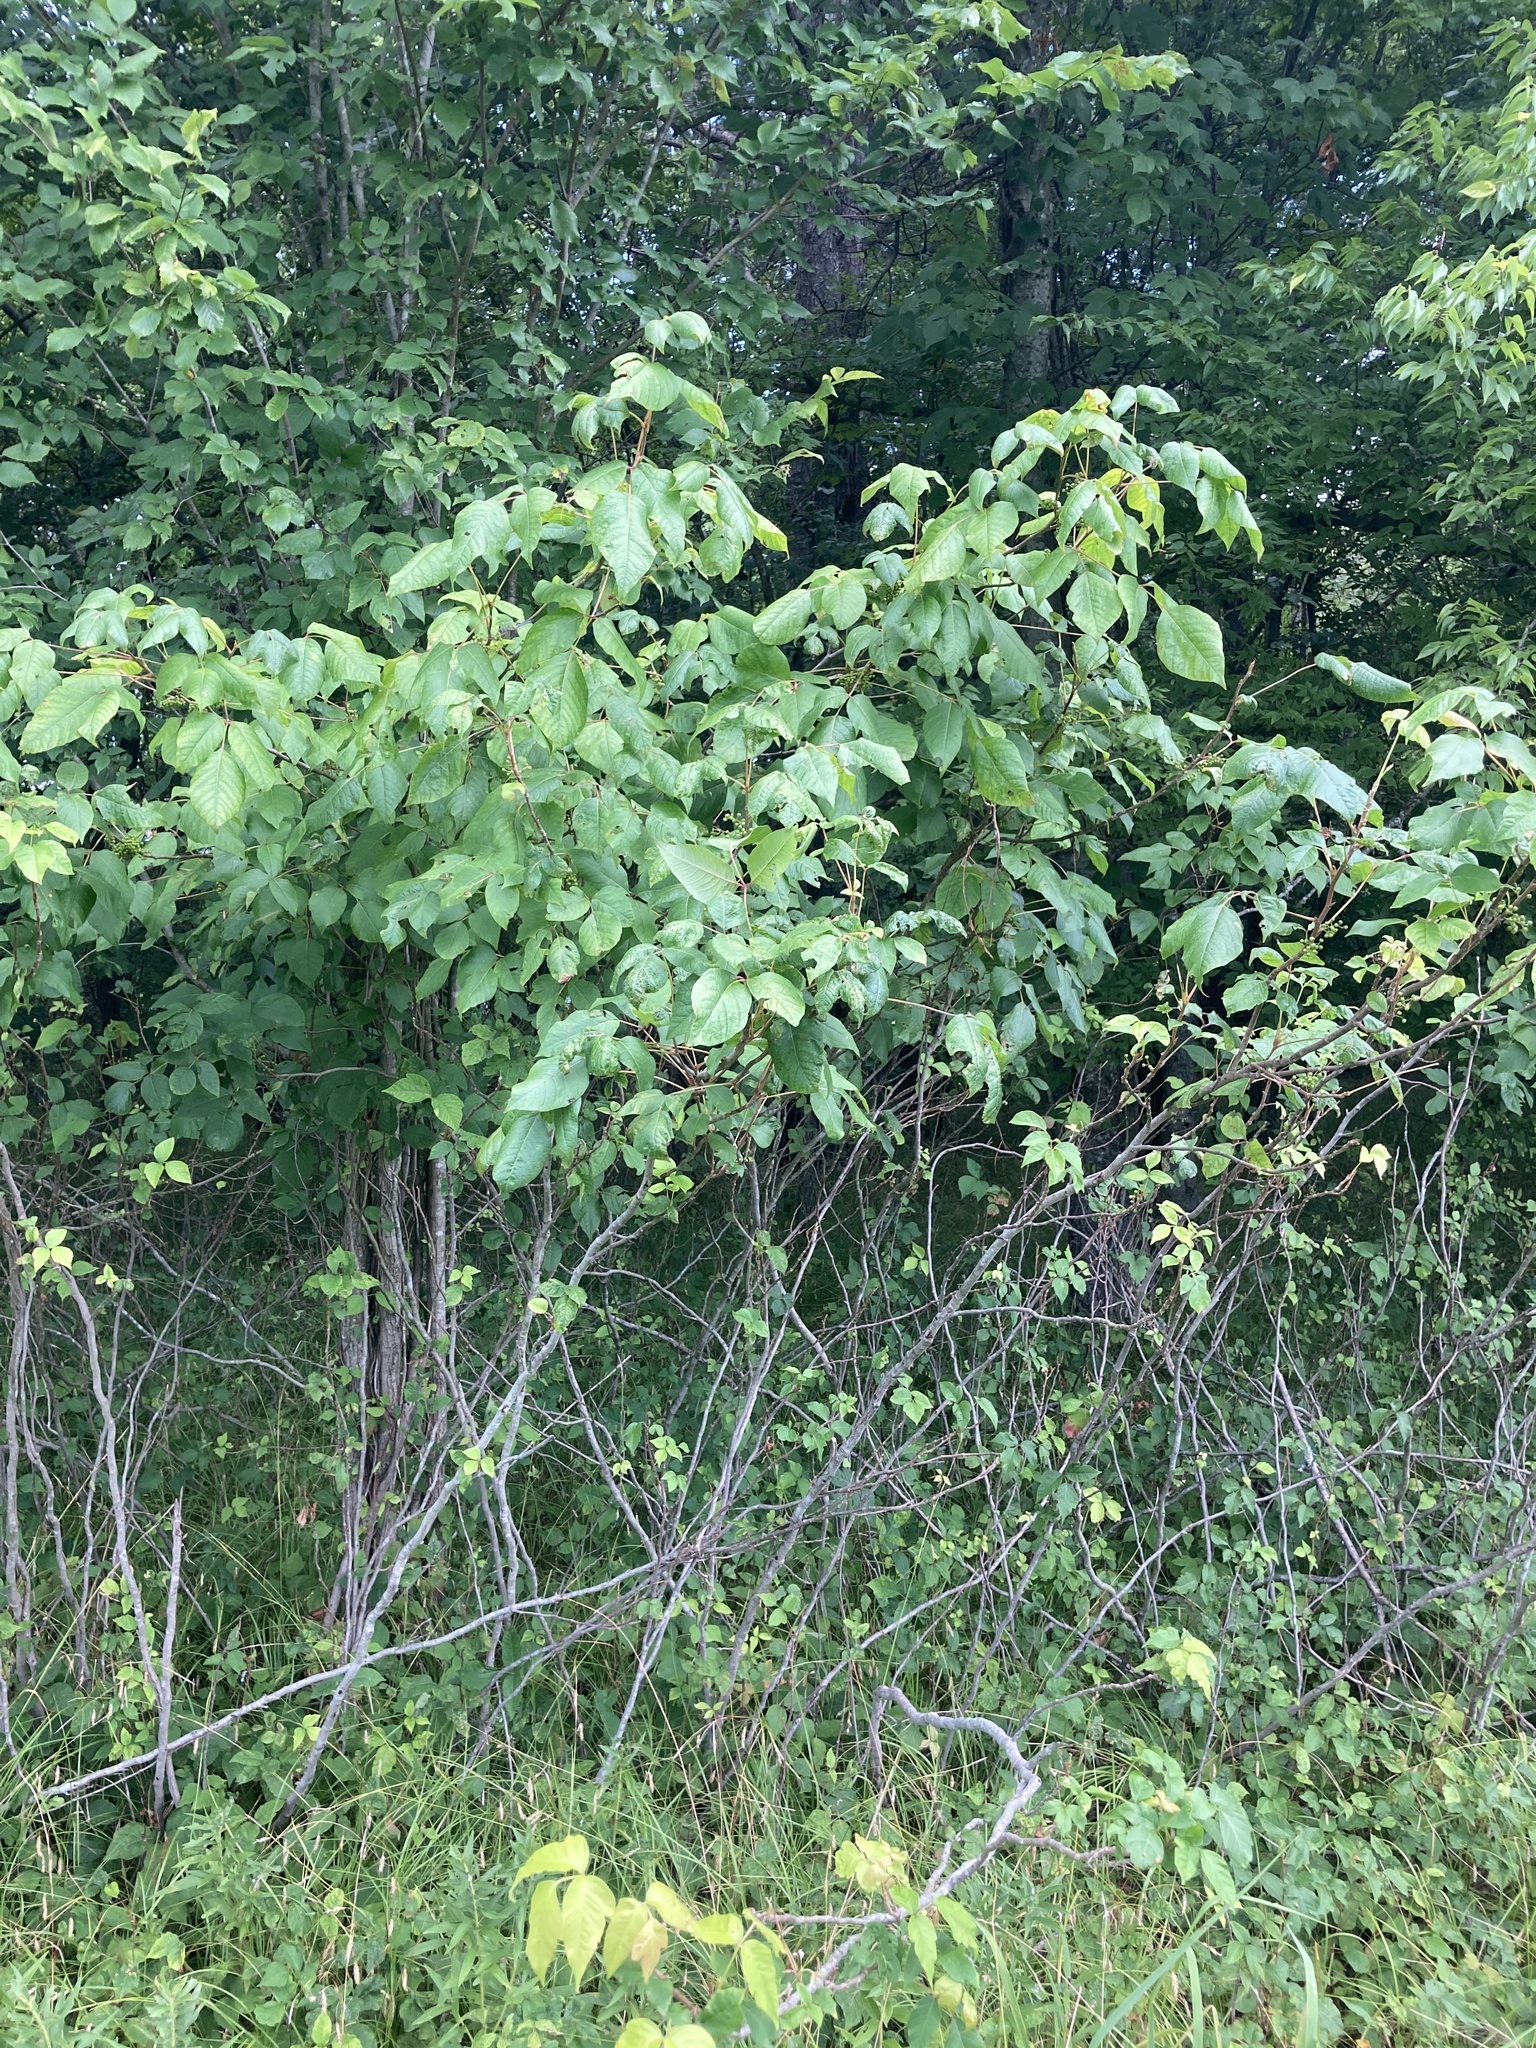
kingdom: Plantae
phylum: Tracheophyta
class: Magnoliopsida
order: Sapindales
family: Anacardiaceae
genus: Toxicodendron
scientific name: Toxicodendron radicans
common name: Poison ivy
